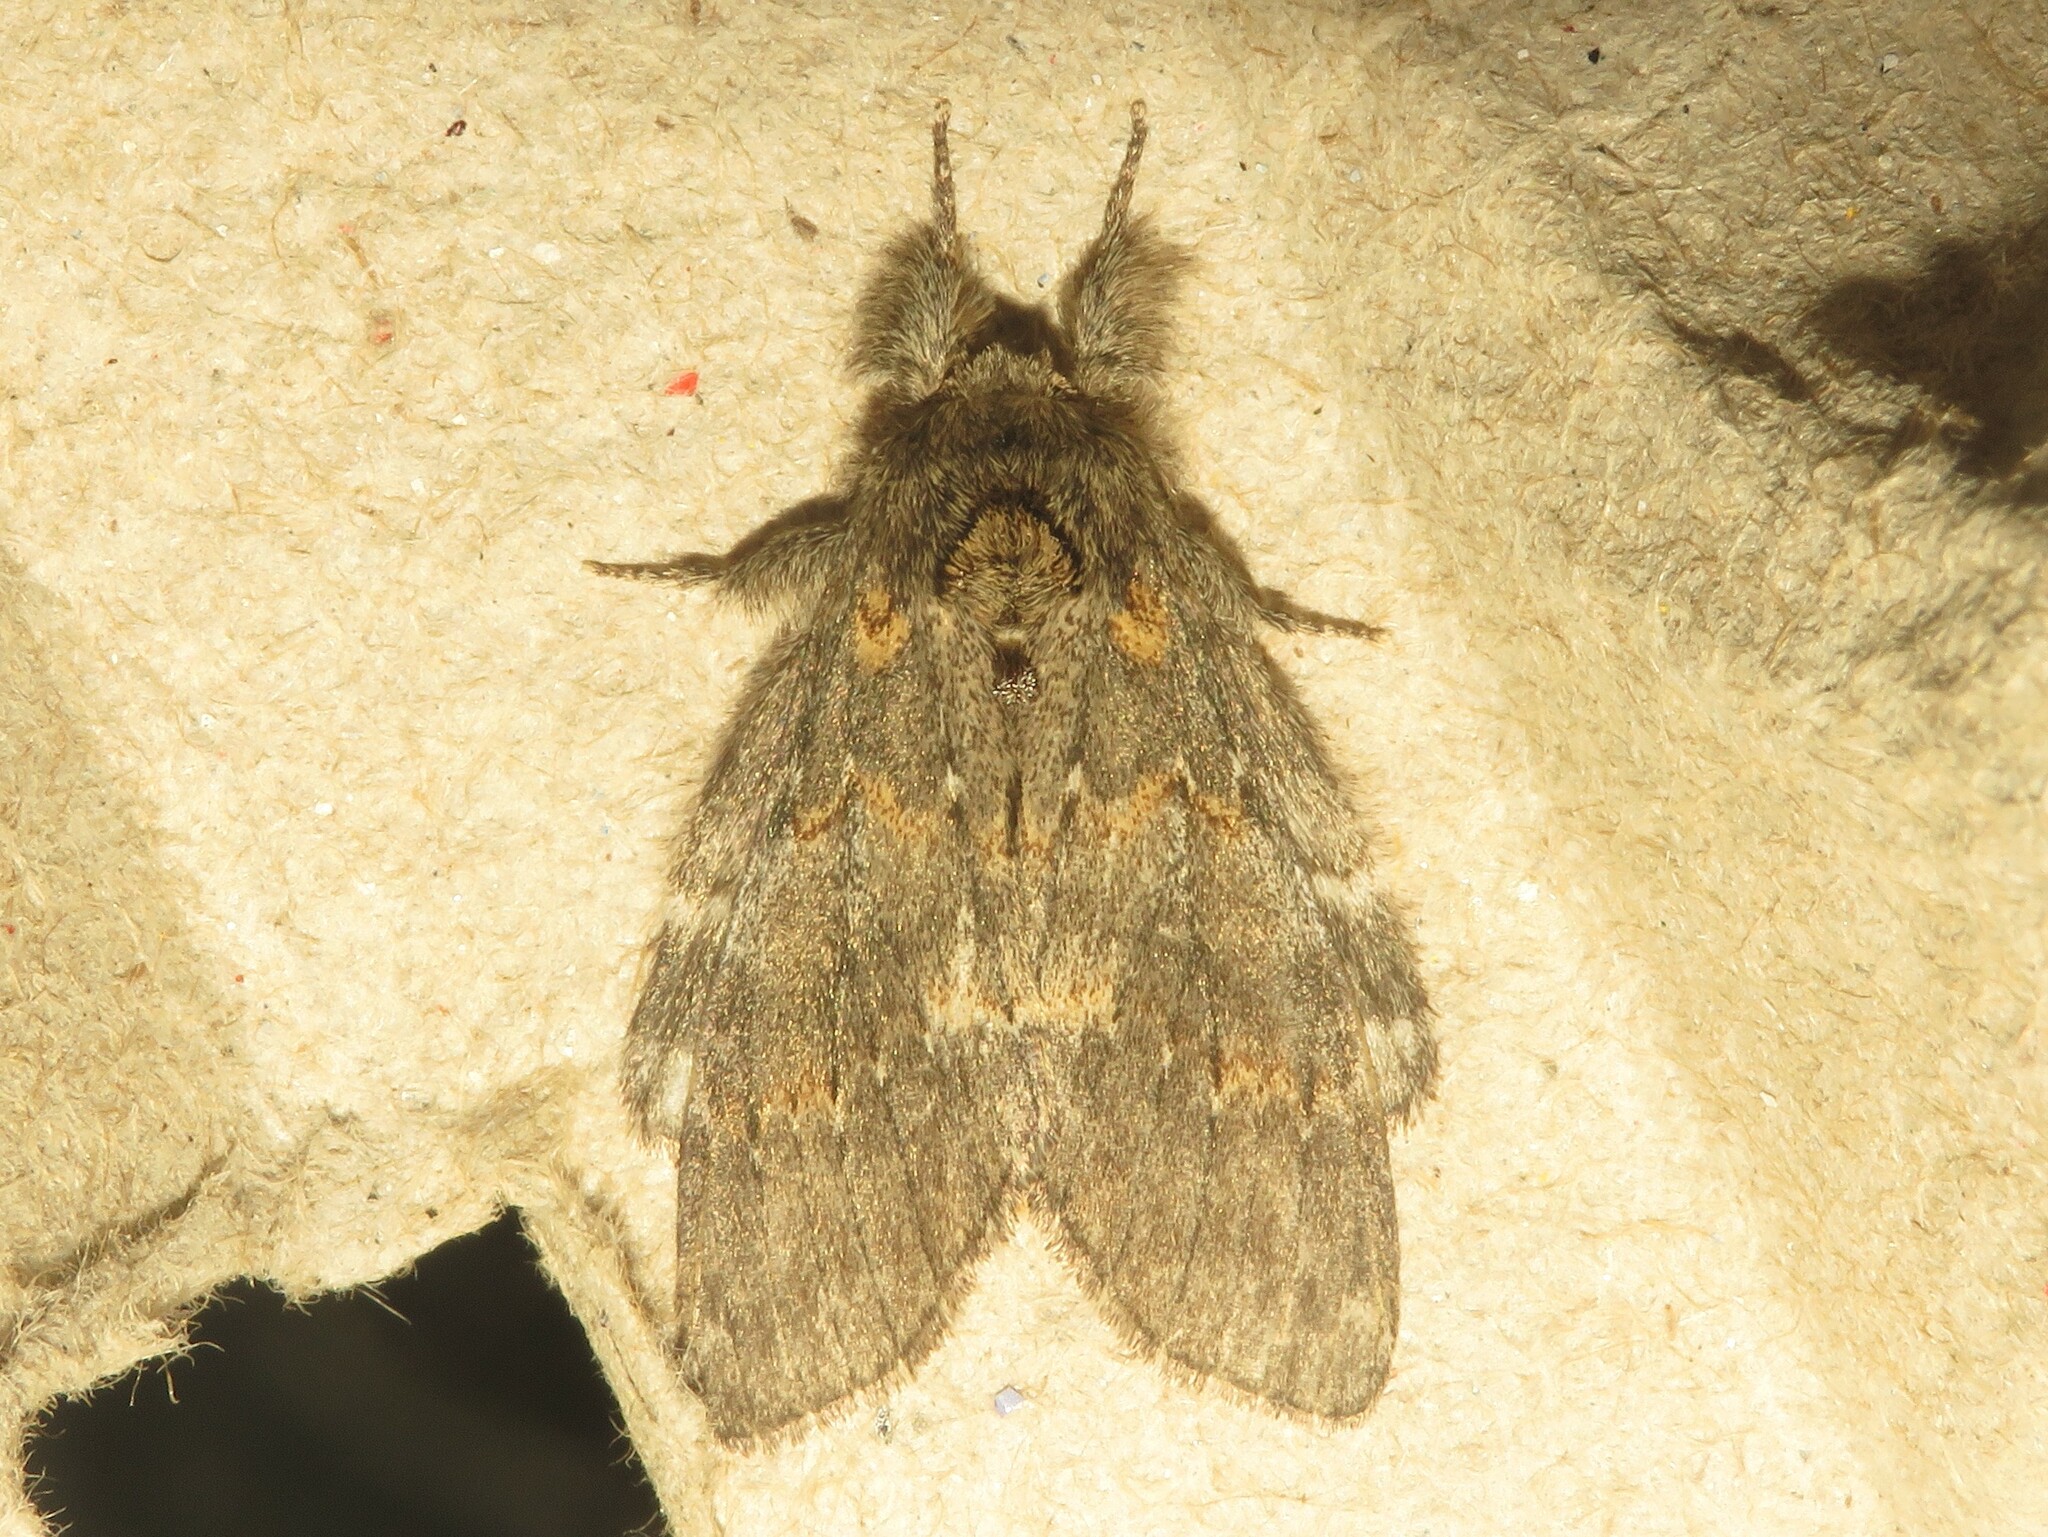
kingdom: Animalia
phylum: Arthropoda
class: Insecta
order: Lepidoptera
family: Notodontidae
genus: Peridea
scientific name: Peridea angulosa
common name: Angulose prominent
